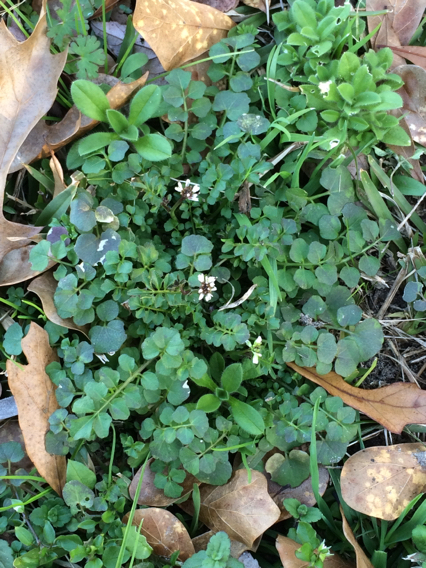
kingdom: Plantae
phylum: Tracheophyta
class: Magnoliopsida
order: Brassicales
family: Brassicaceae
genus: Cardamine
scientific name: Cardamine hirsuta
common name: Hairy bittercress
